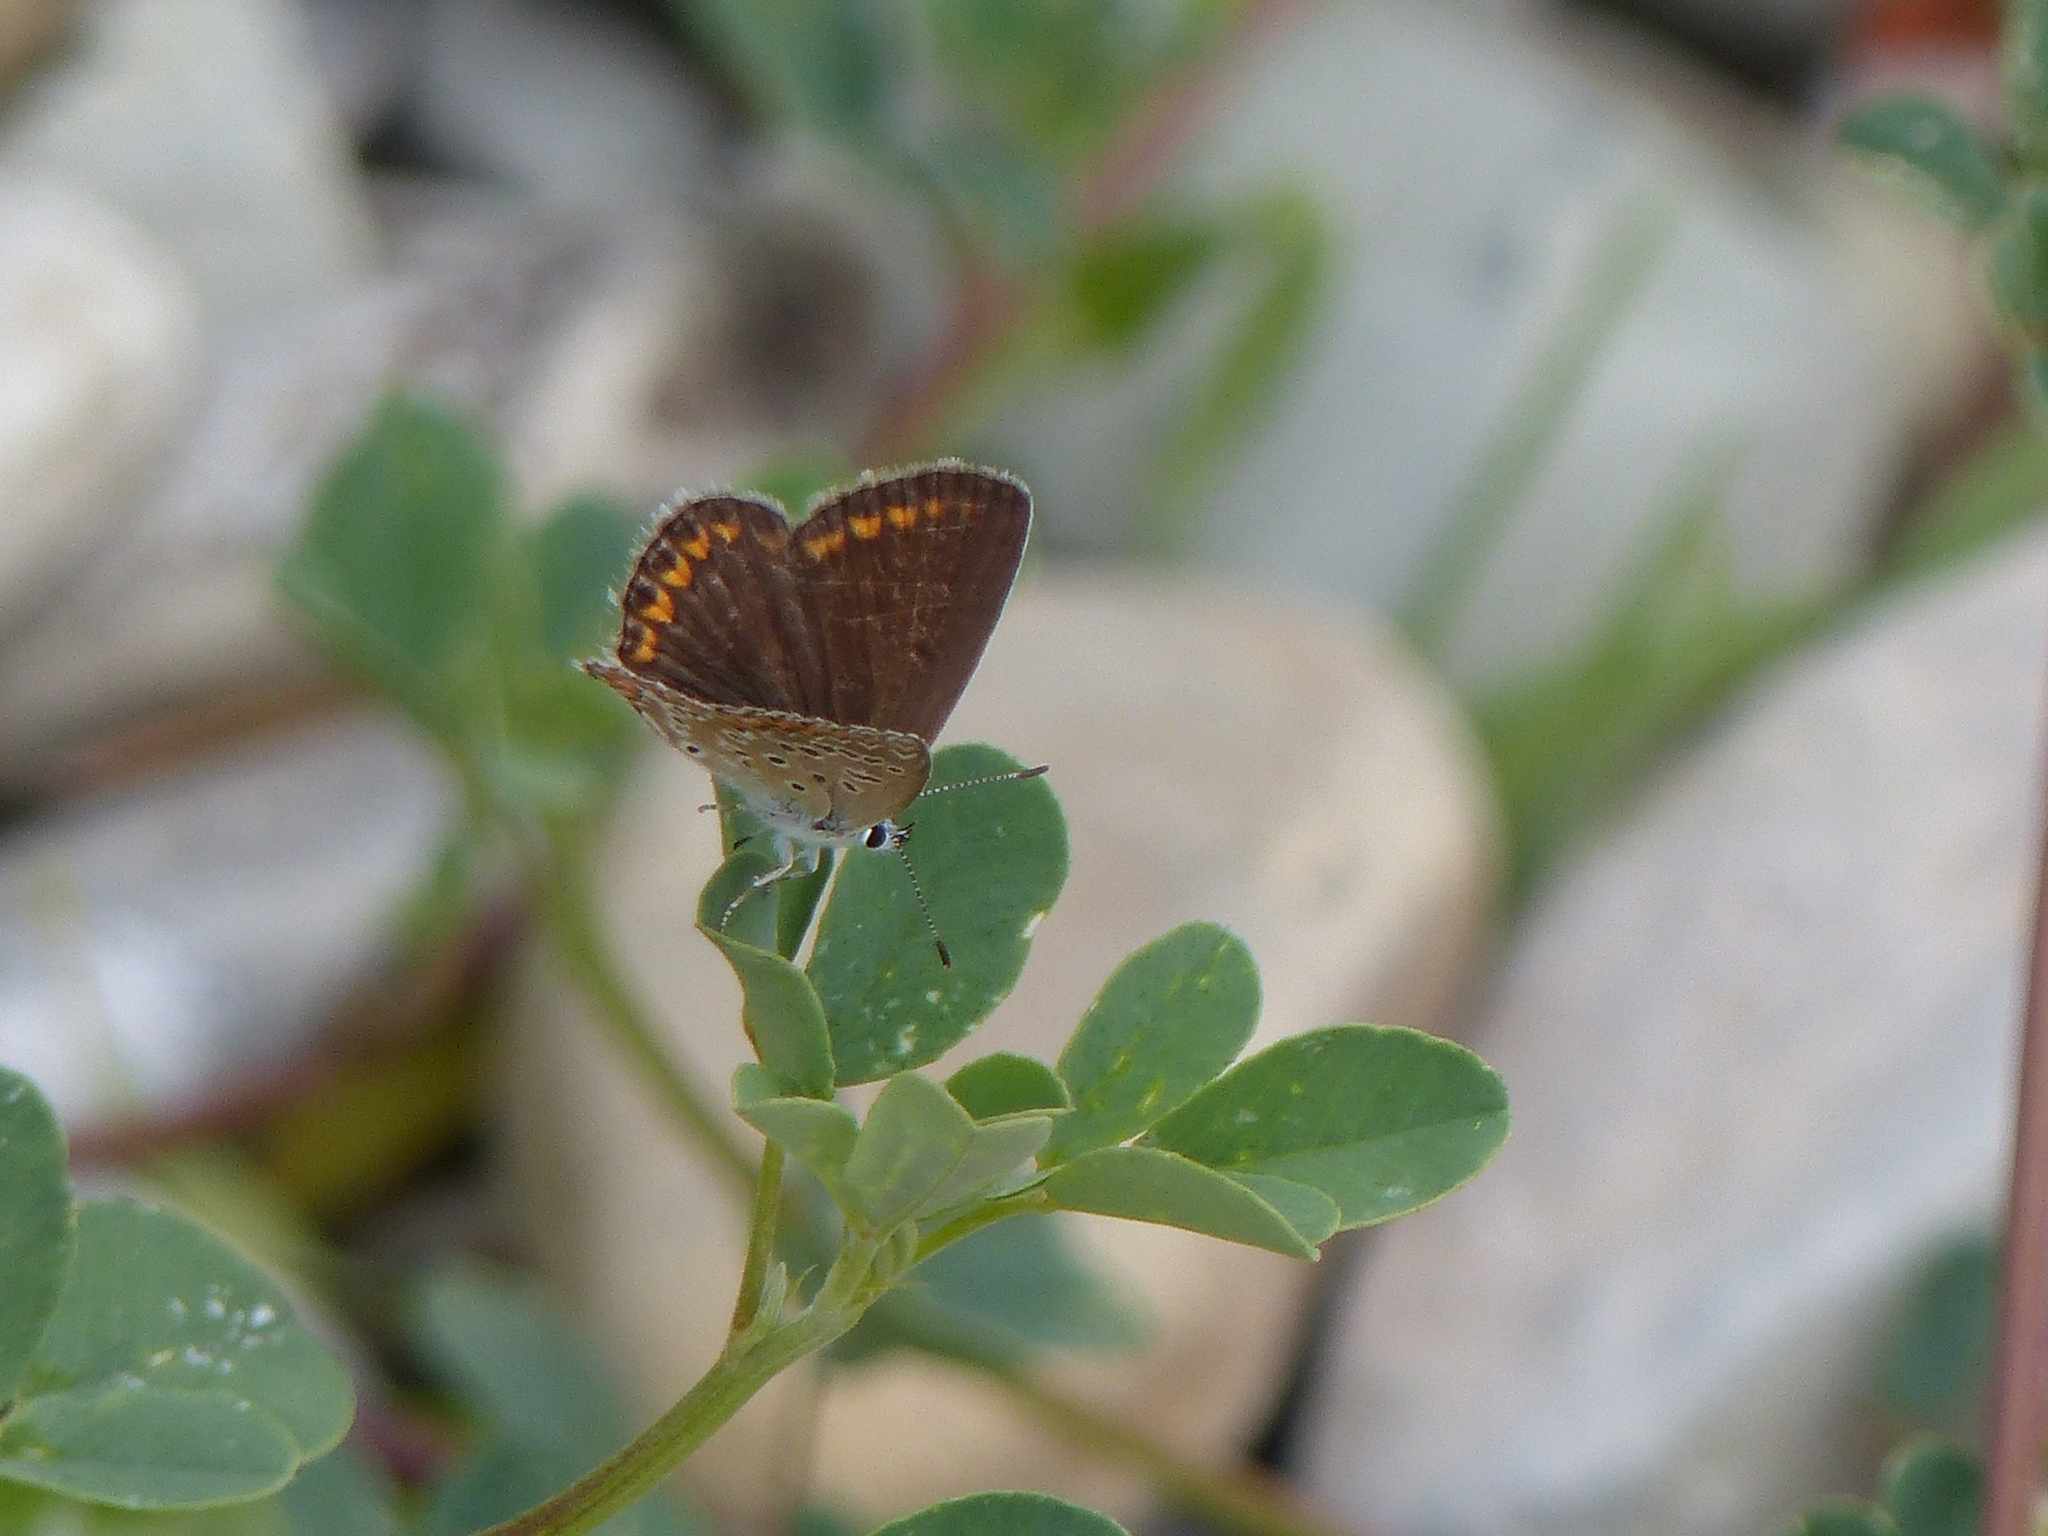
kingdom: Animalia
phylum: Arthropoda
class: Insecta
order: Lepidoptera
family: Lycaenidae
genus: Polyommatus
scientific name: Polyommatus icarus
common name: Common blue
